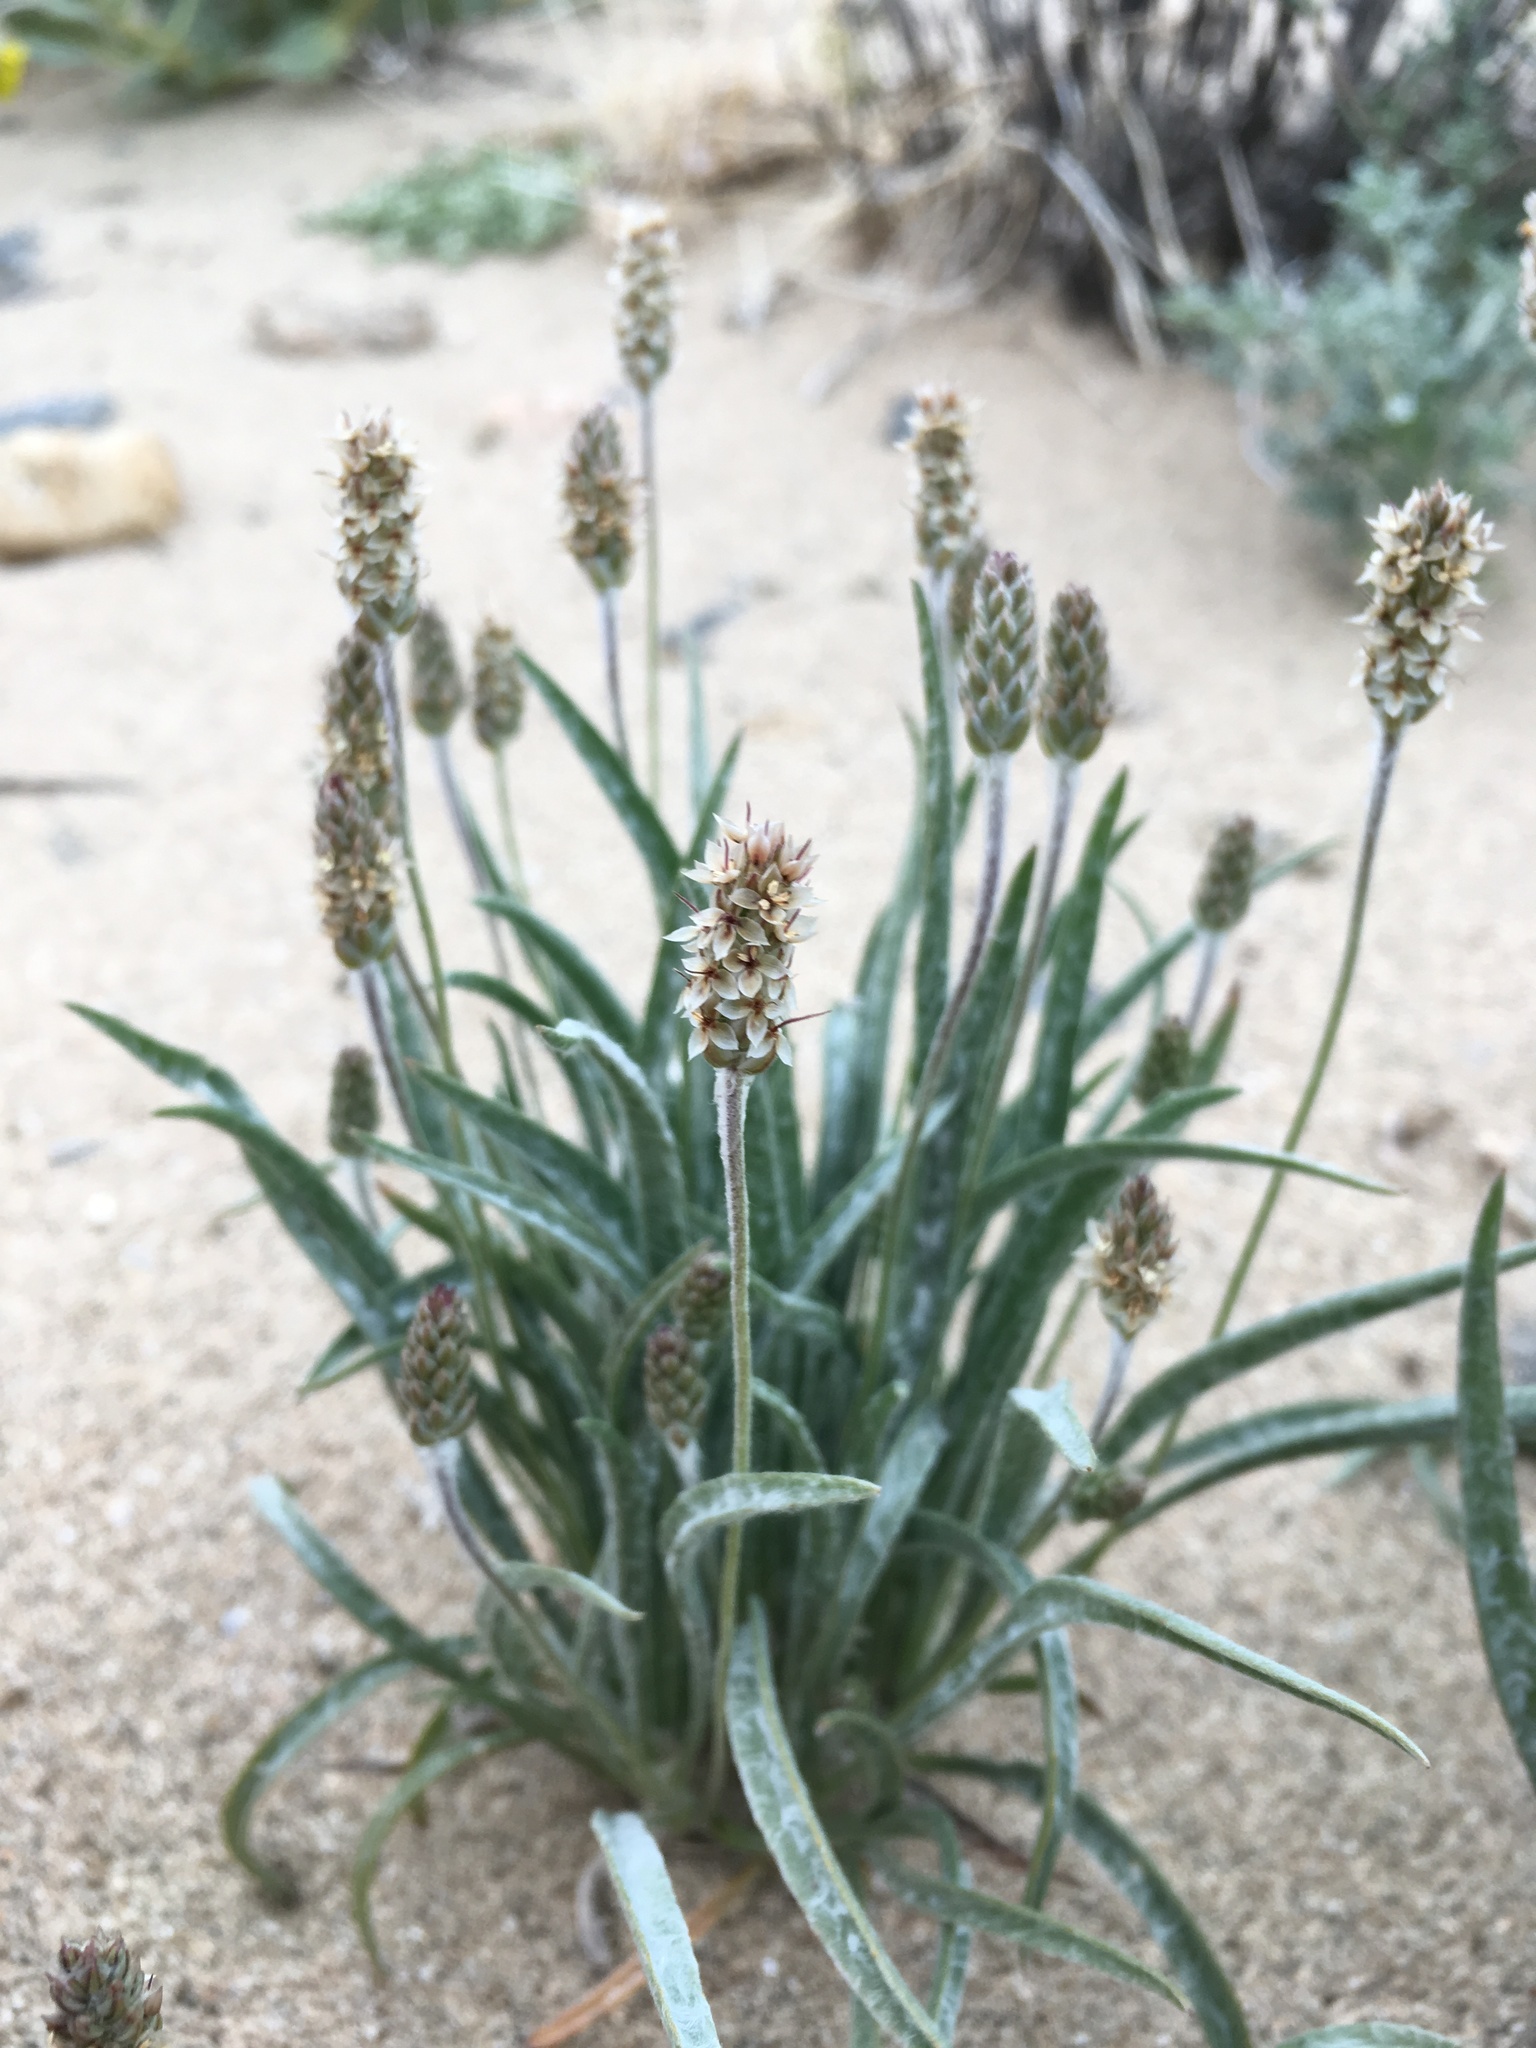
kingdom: Plantae
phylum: Tracheophyta
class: Magnoliopsida
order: Lamiales
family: Plantaginaceae
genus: Plantago
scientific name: Plantago ovata
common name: Blond plantain
